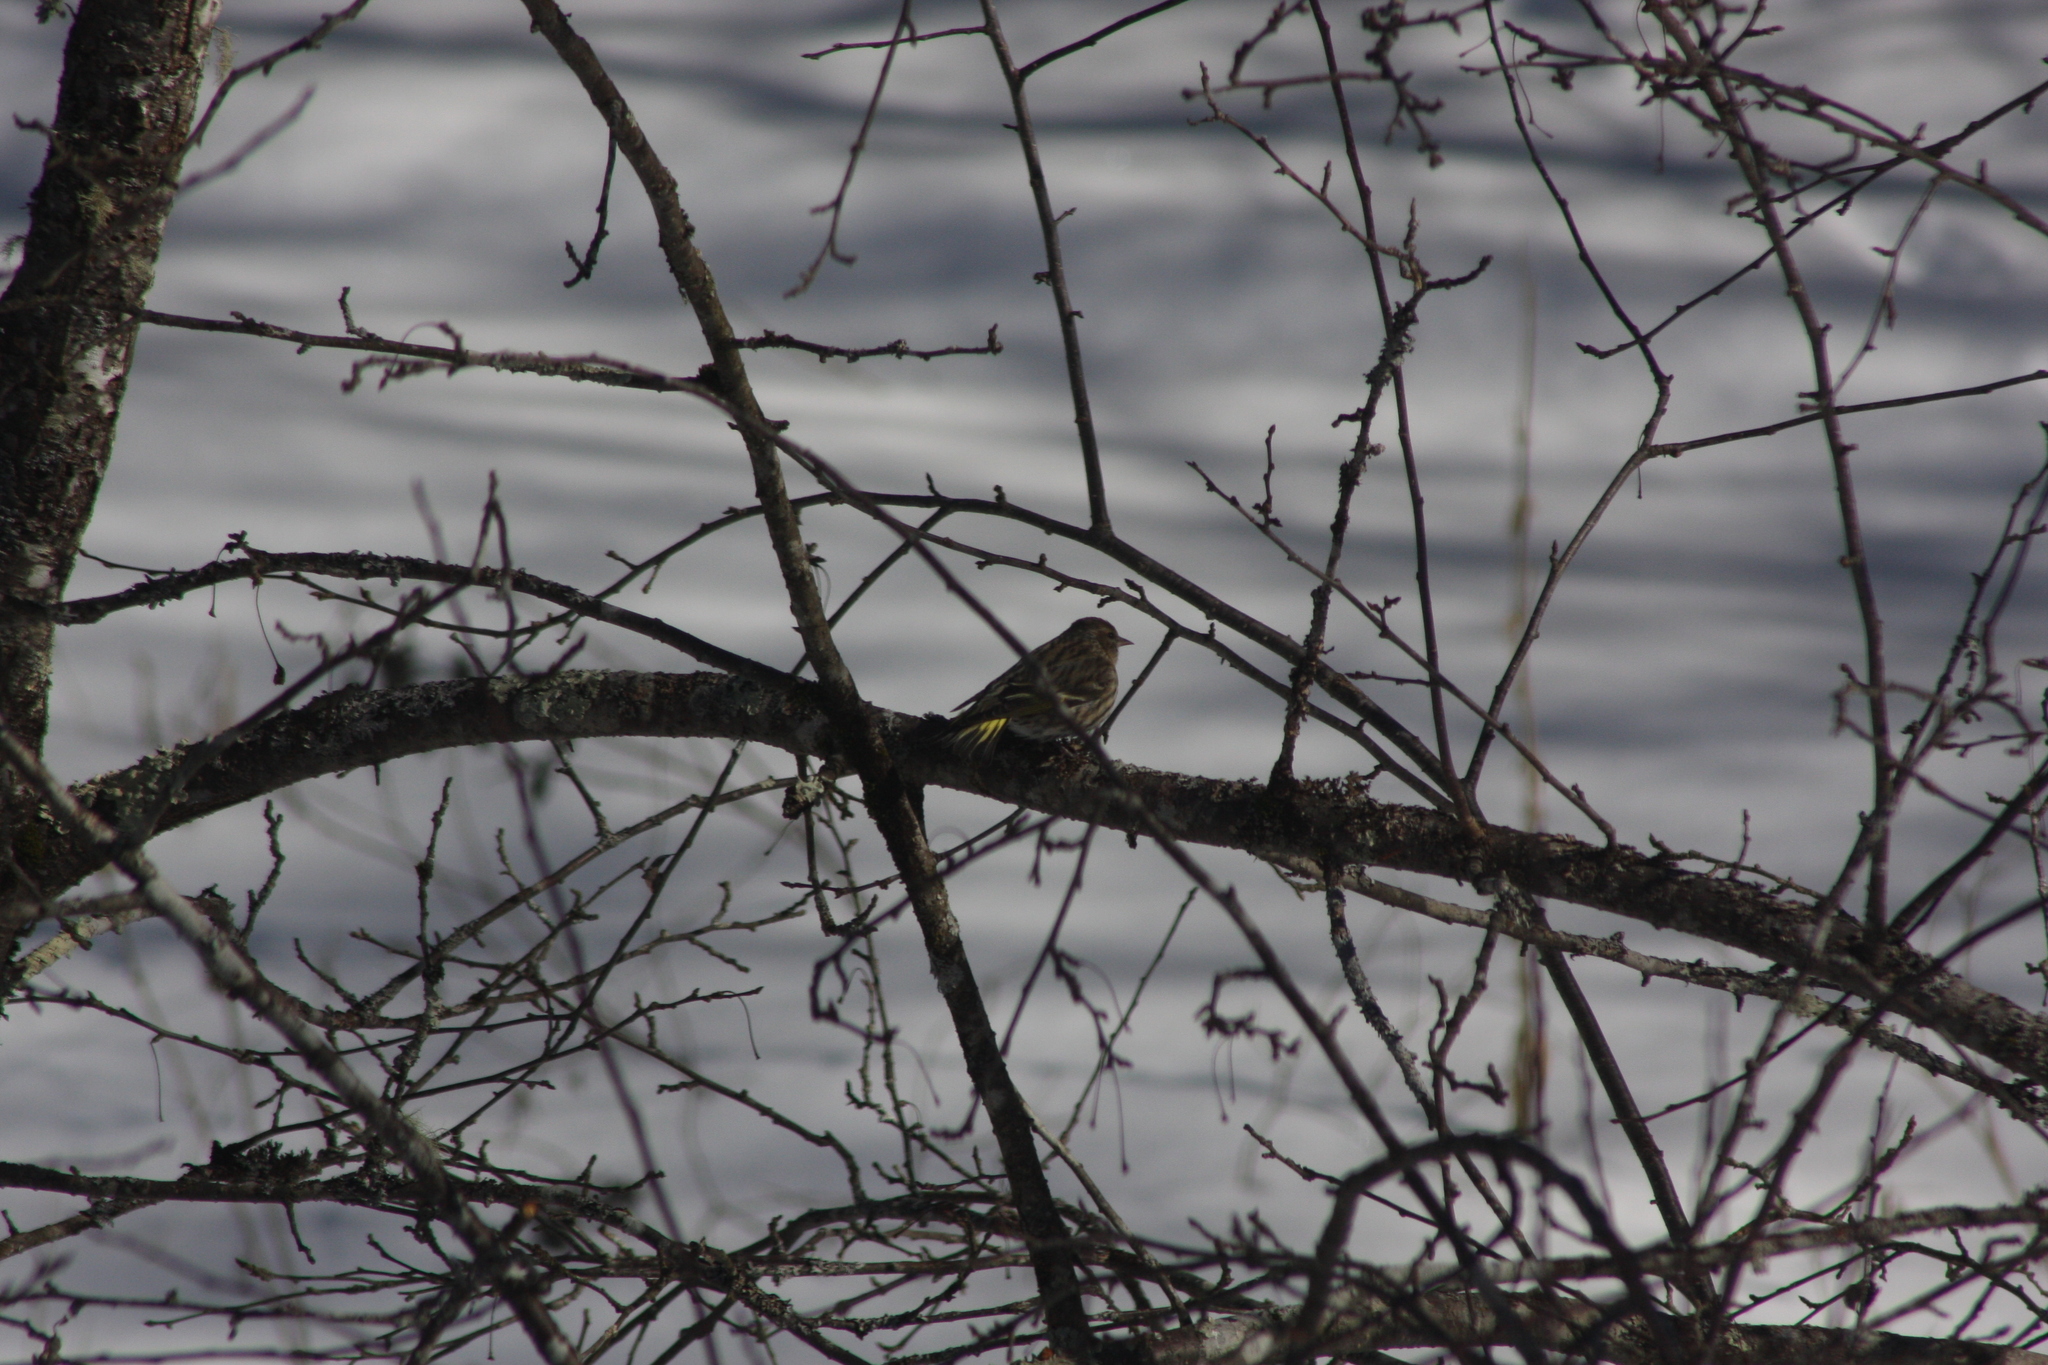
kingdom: Animalia
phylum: Chordata
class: Aves
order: Passeriformes
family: Fringillidae
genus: Spinus
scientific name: Spinus pinus
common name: Pine siskin
